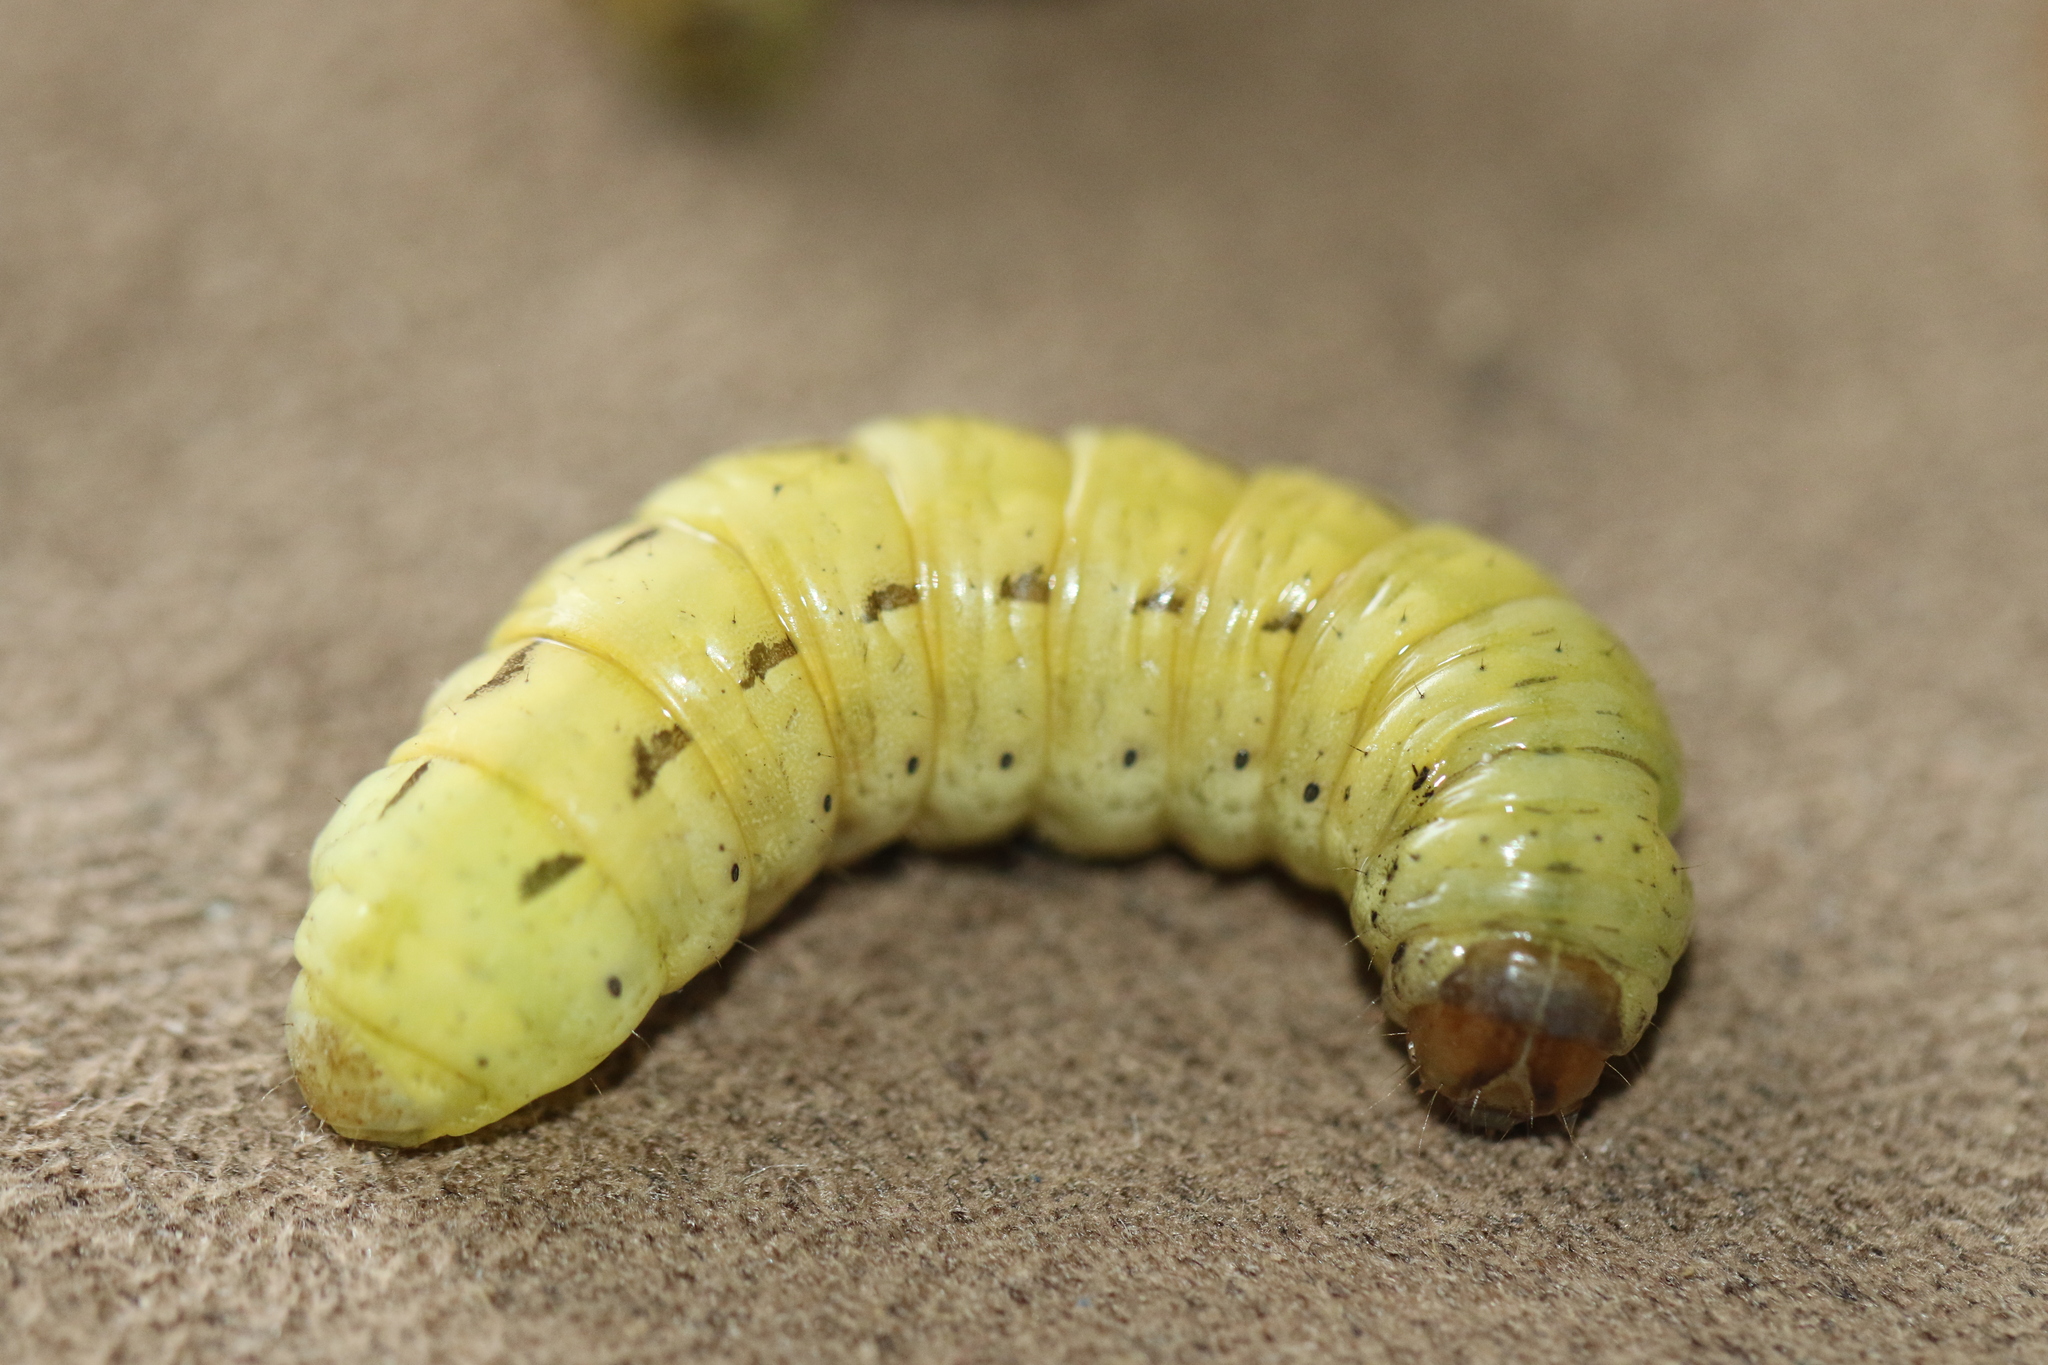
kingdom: Animalia
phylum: Arthropoda
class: Insecta
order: Lepidoptera
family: Noctuidae
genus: Noctua
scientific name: Noctua pronuba
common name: Large yellow underwing
